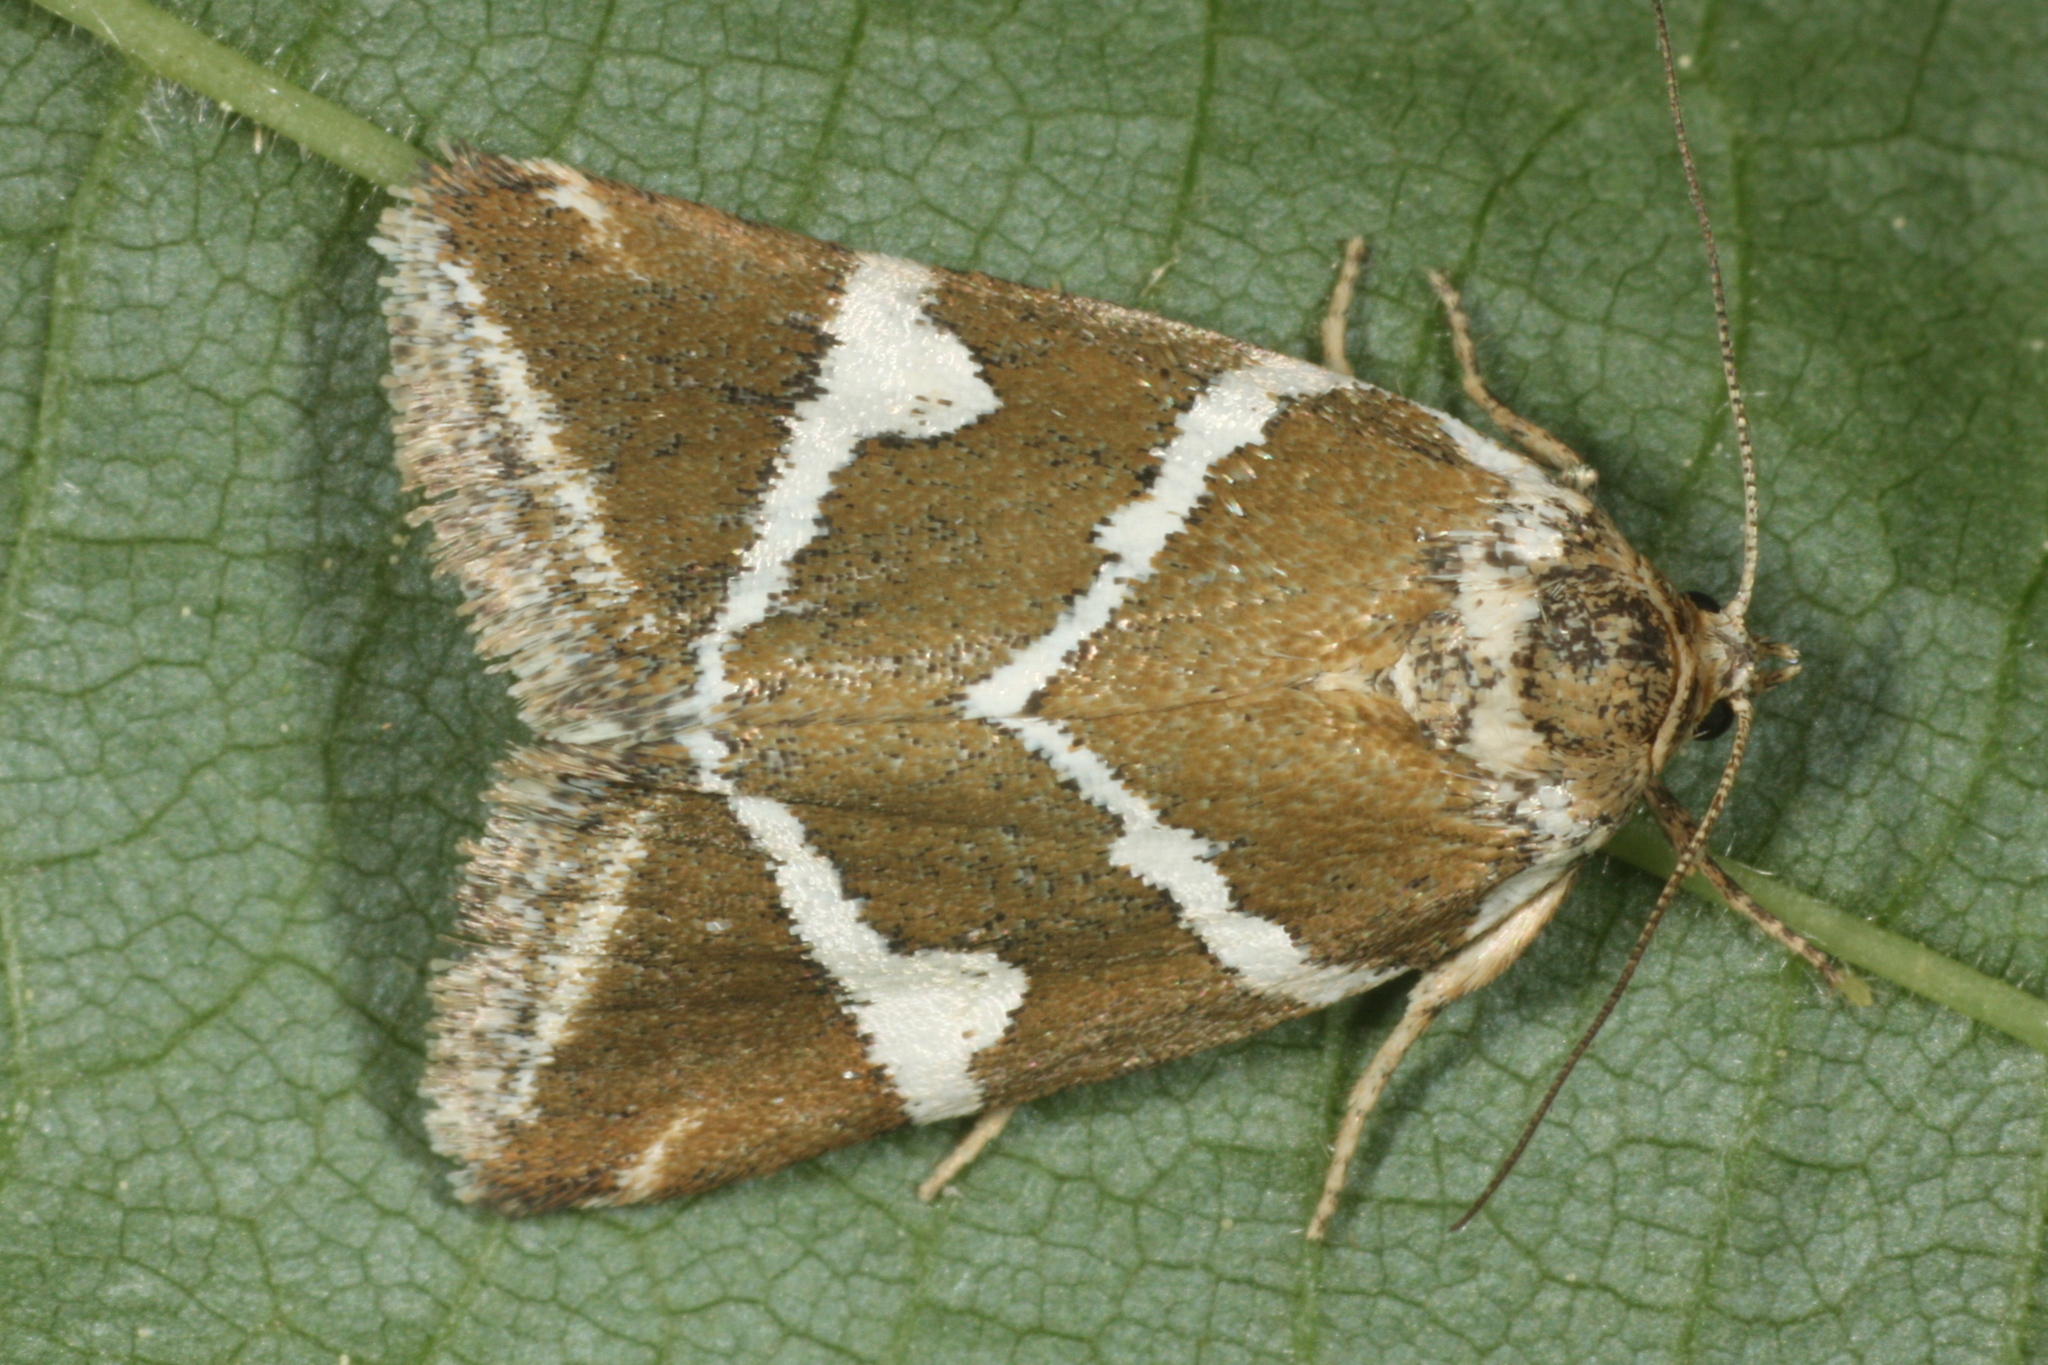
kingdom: Animalia
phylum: Arthropoda
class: Insecta
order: Lepidoptera
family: Noctuidae
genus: Deltote
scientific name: Deltote bankiana
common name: Silver barred
